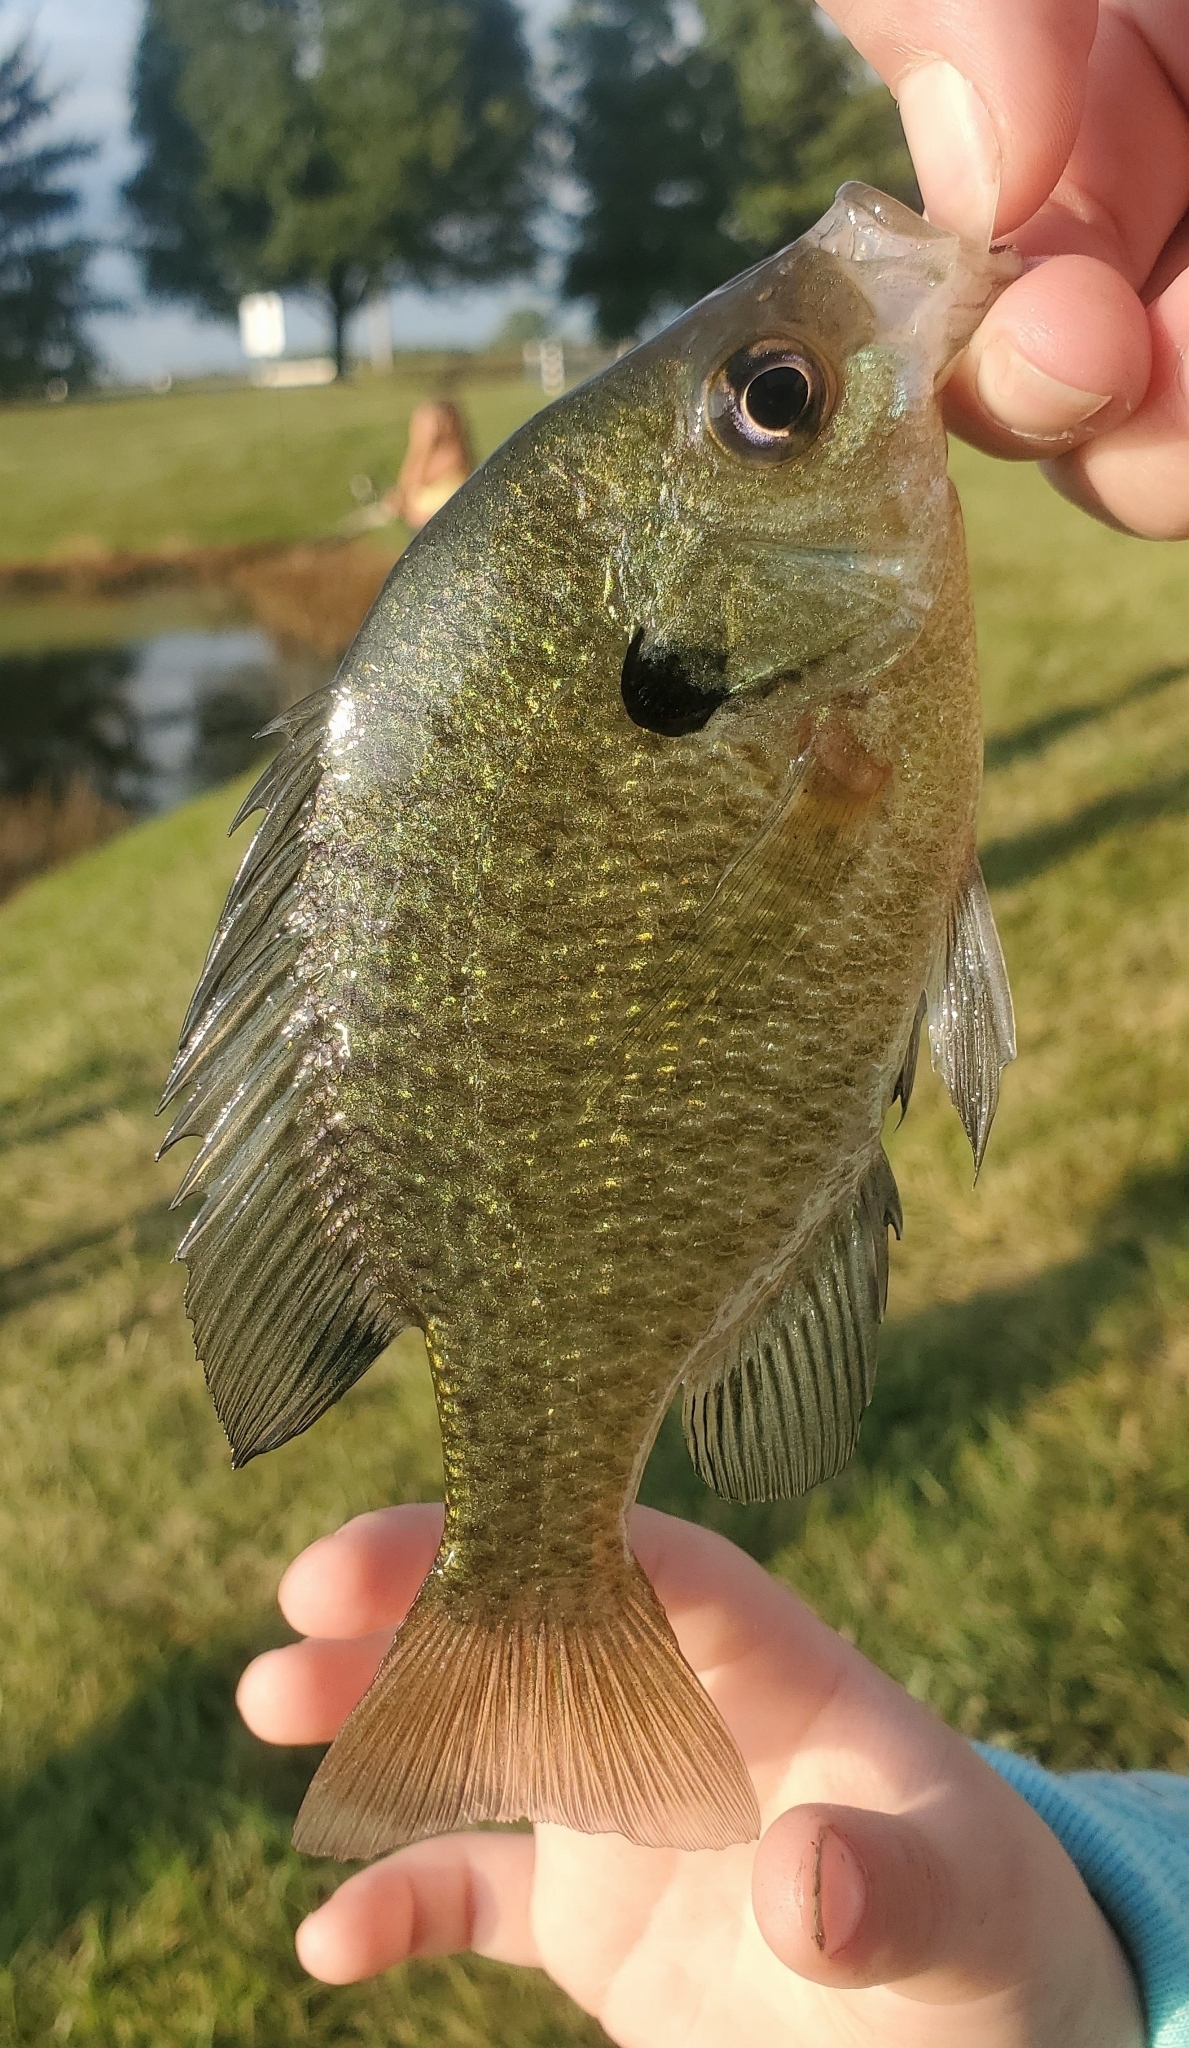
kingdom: Animalia
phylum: Chordata
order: Perciformes
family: Centrarchidae
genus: Lepomis
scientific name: Lepomis macrochirus
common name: Bluegill
